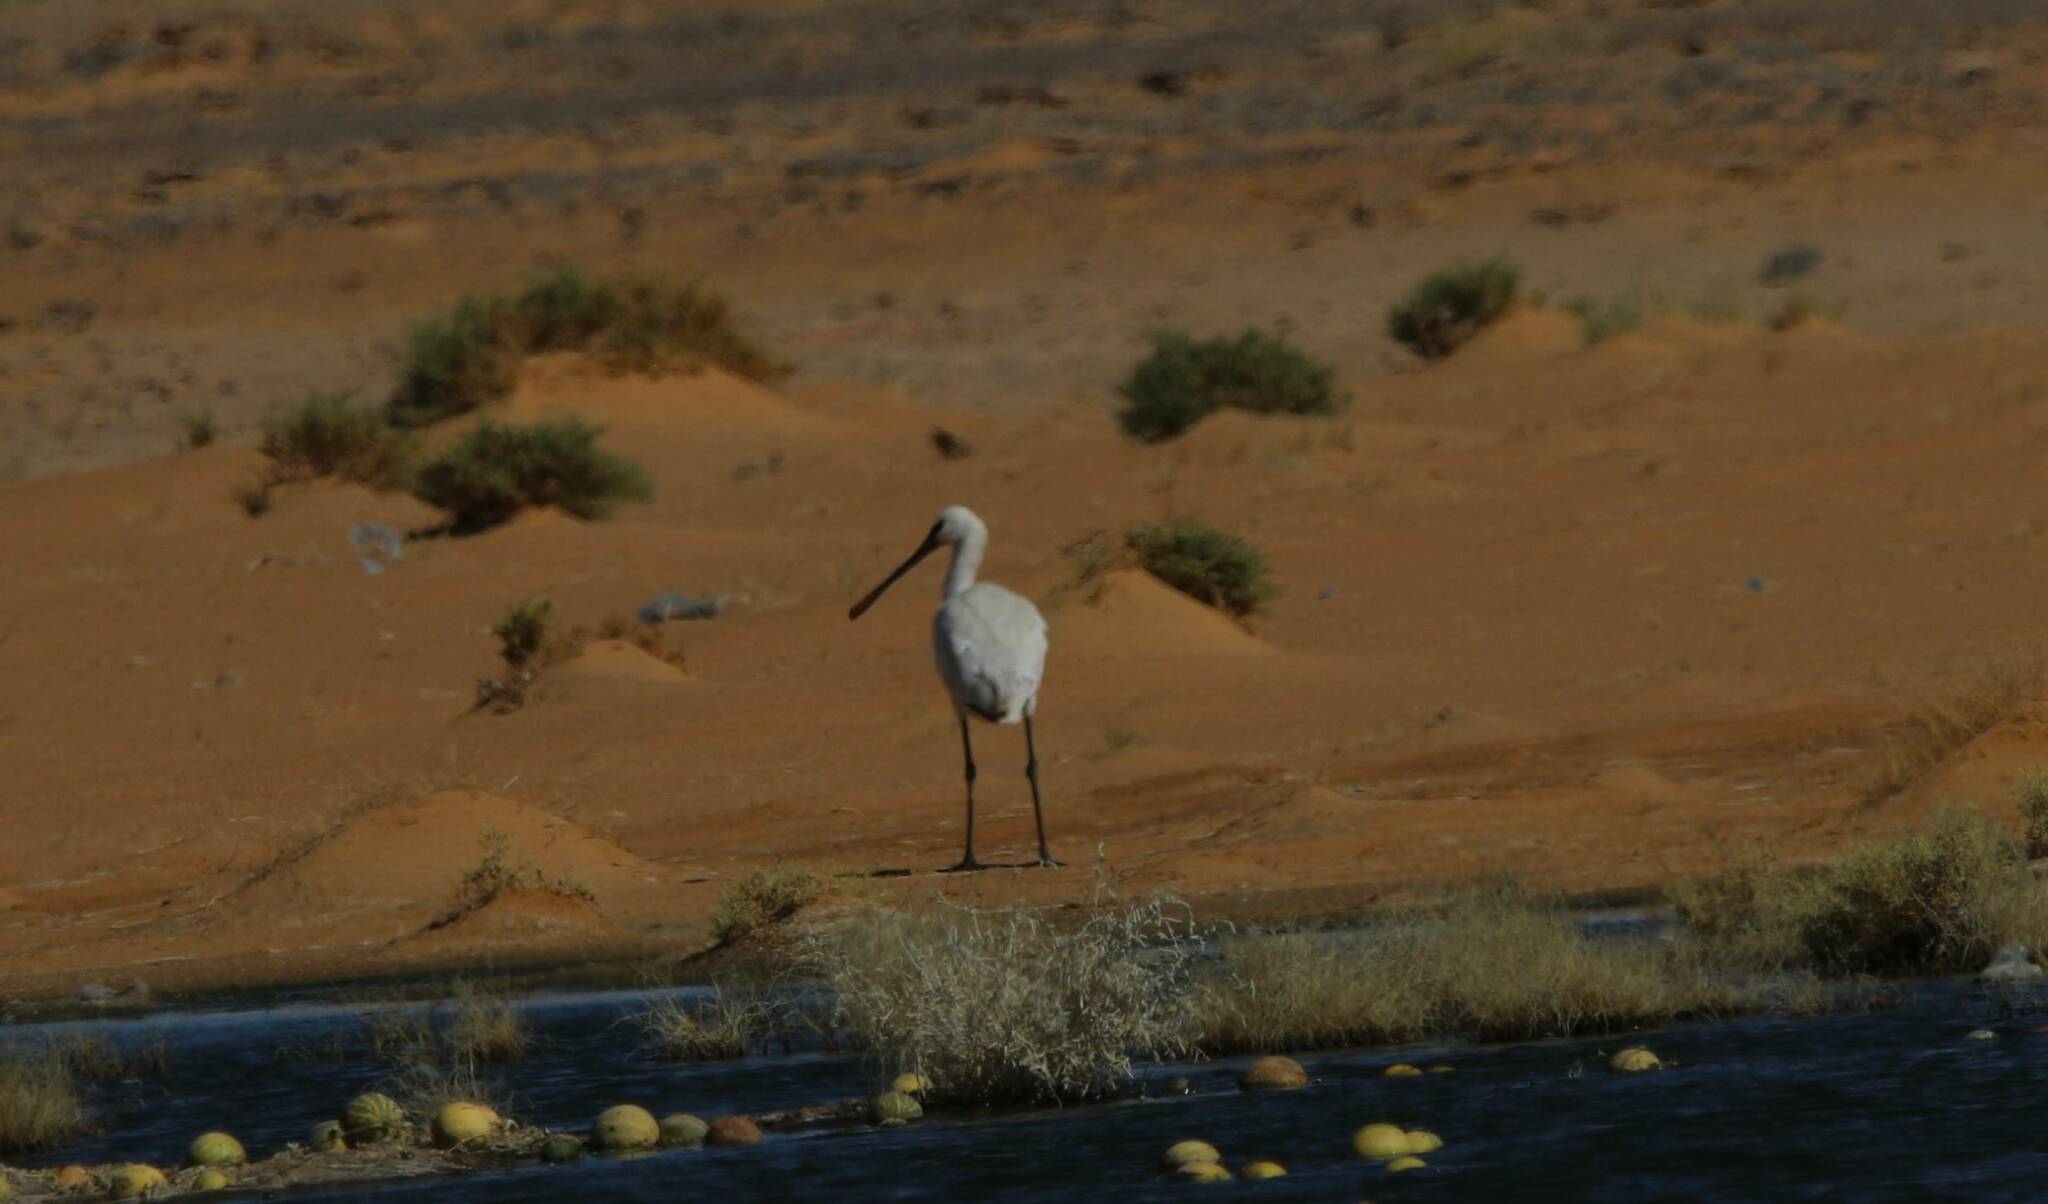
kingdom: Animalia
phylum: Chordata
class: Aves
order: Pelecaniformes
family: Threskiornithidae
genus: Platalea
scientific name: Platalea leucorodia
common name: Eurasian spoonbill
